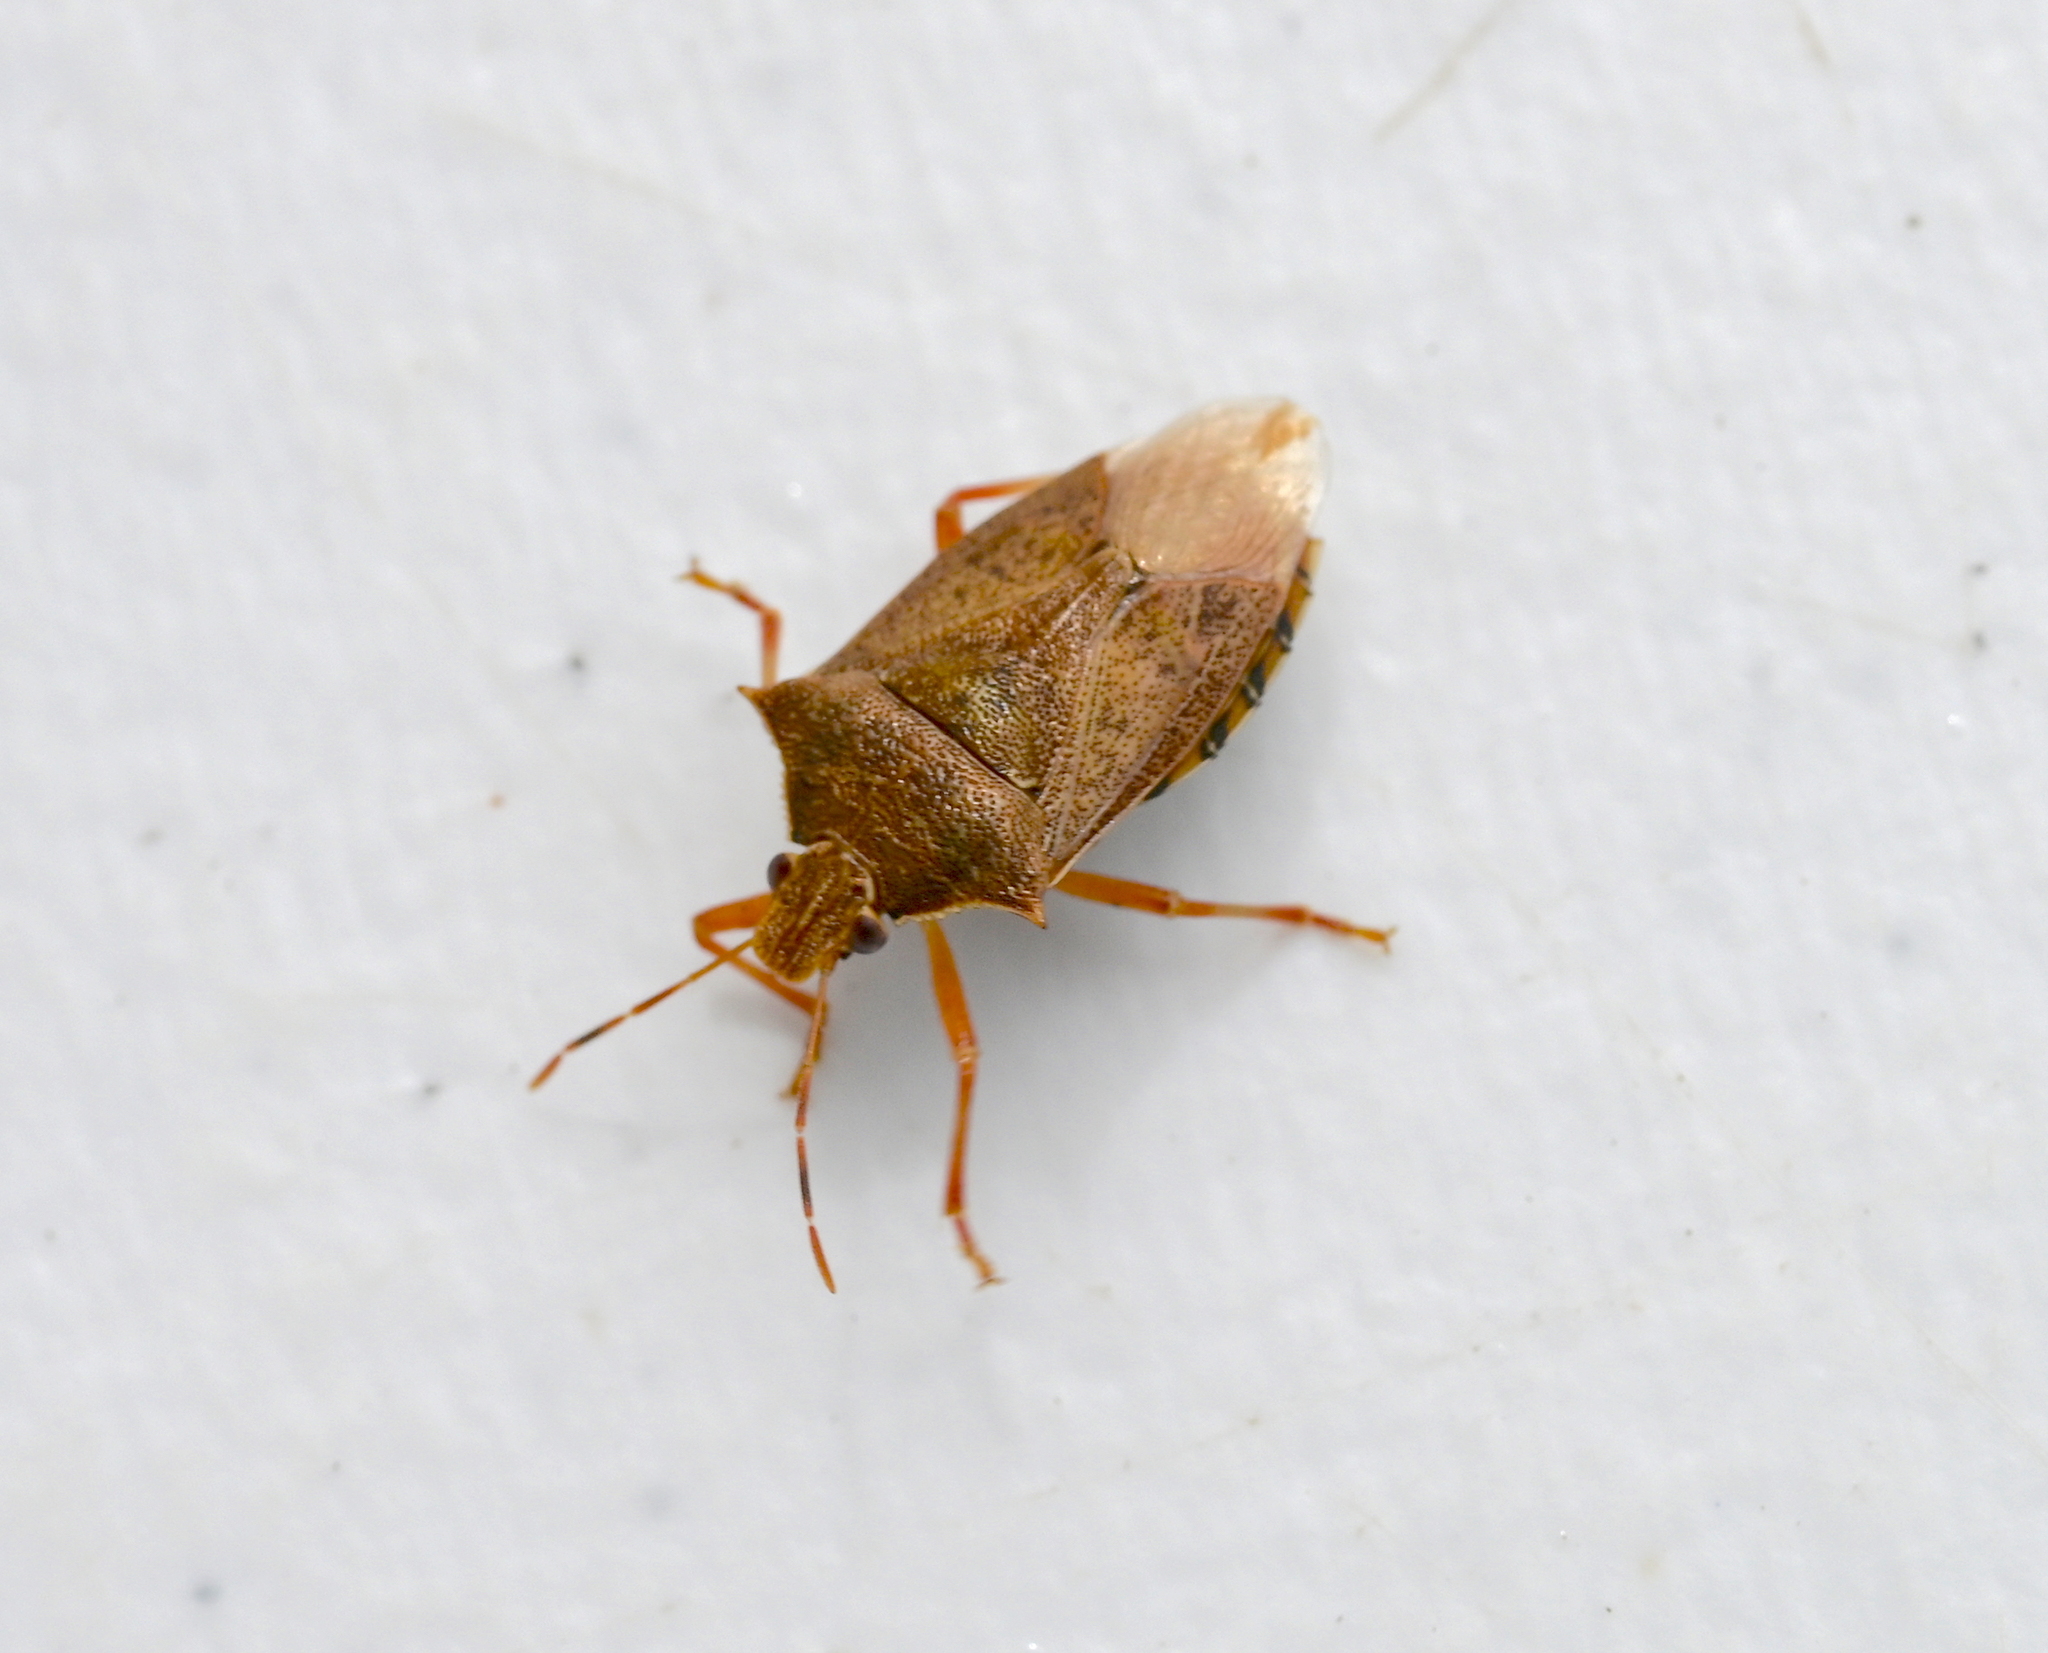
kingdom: Animalia
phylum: Arthropoda
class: Insecta
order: Hemiptera
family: Pentatomidae
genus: Podisus
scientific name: Podisus maculiventris
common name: Spined soldier bug
